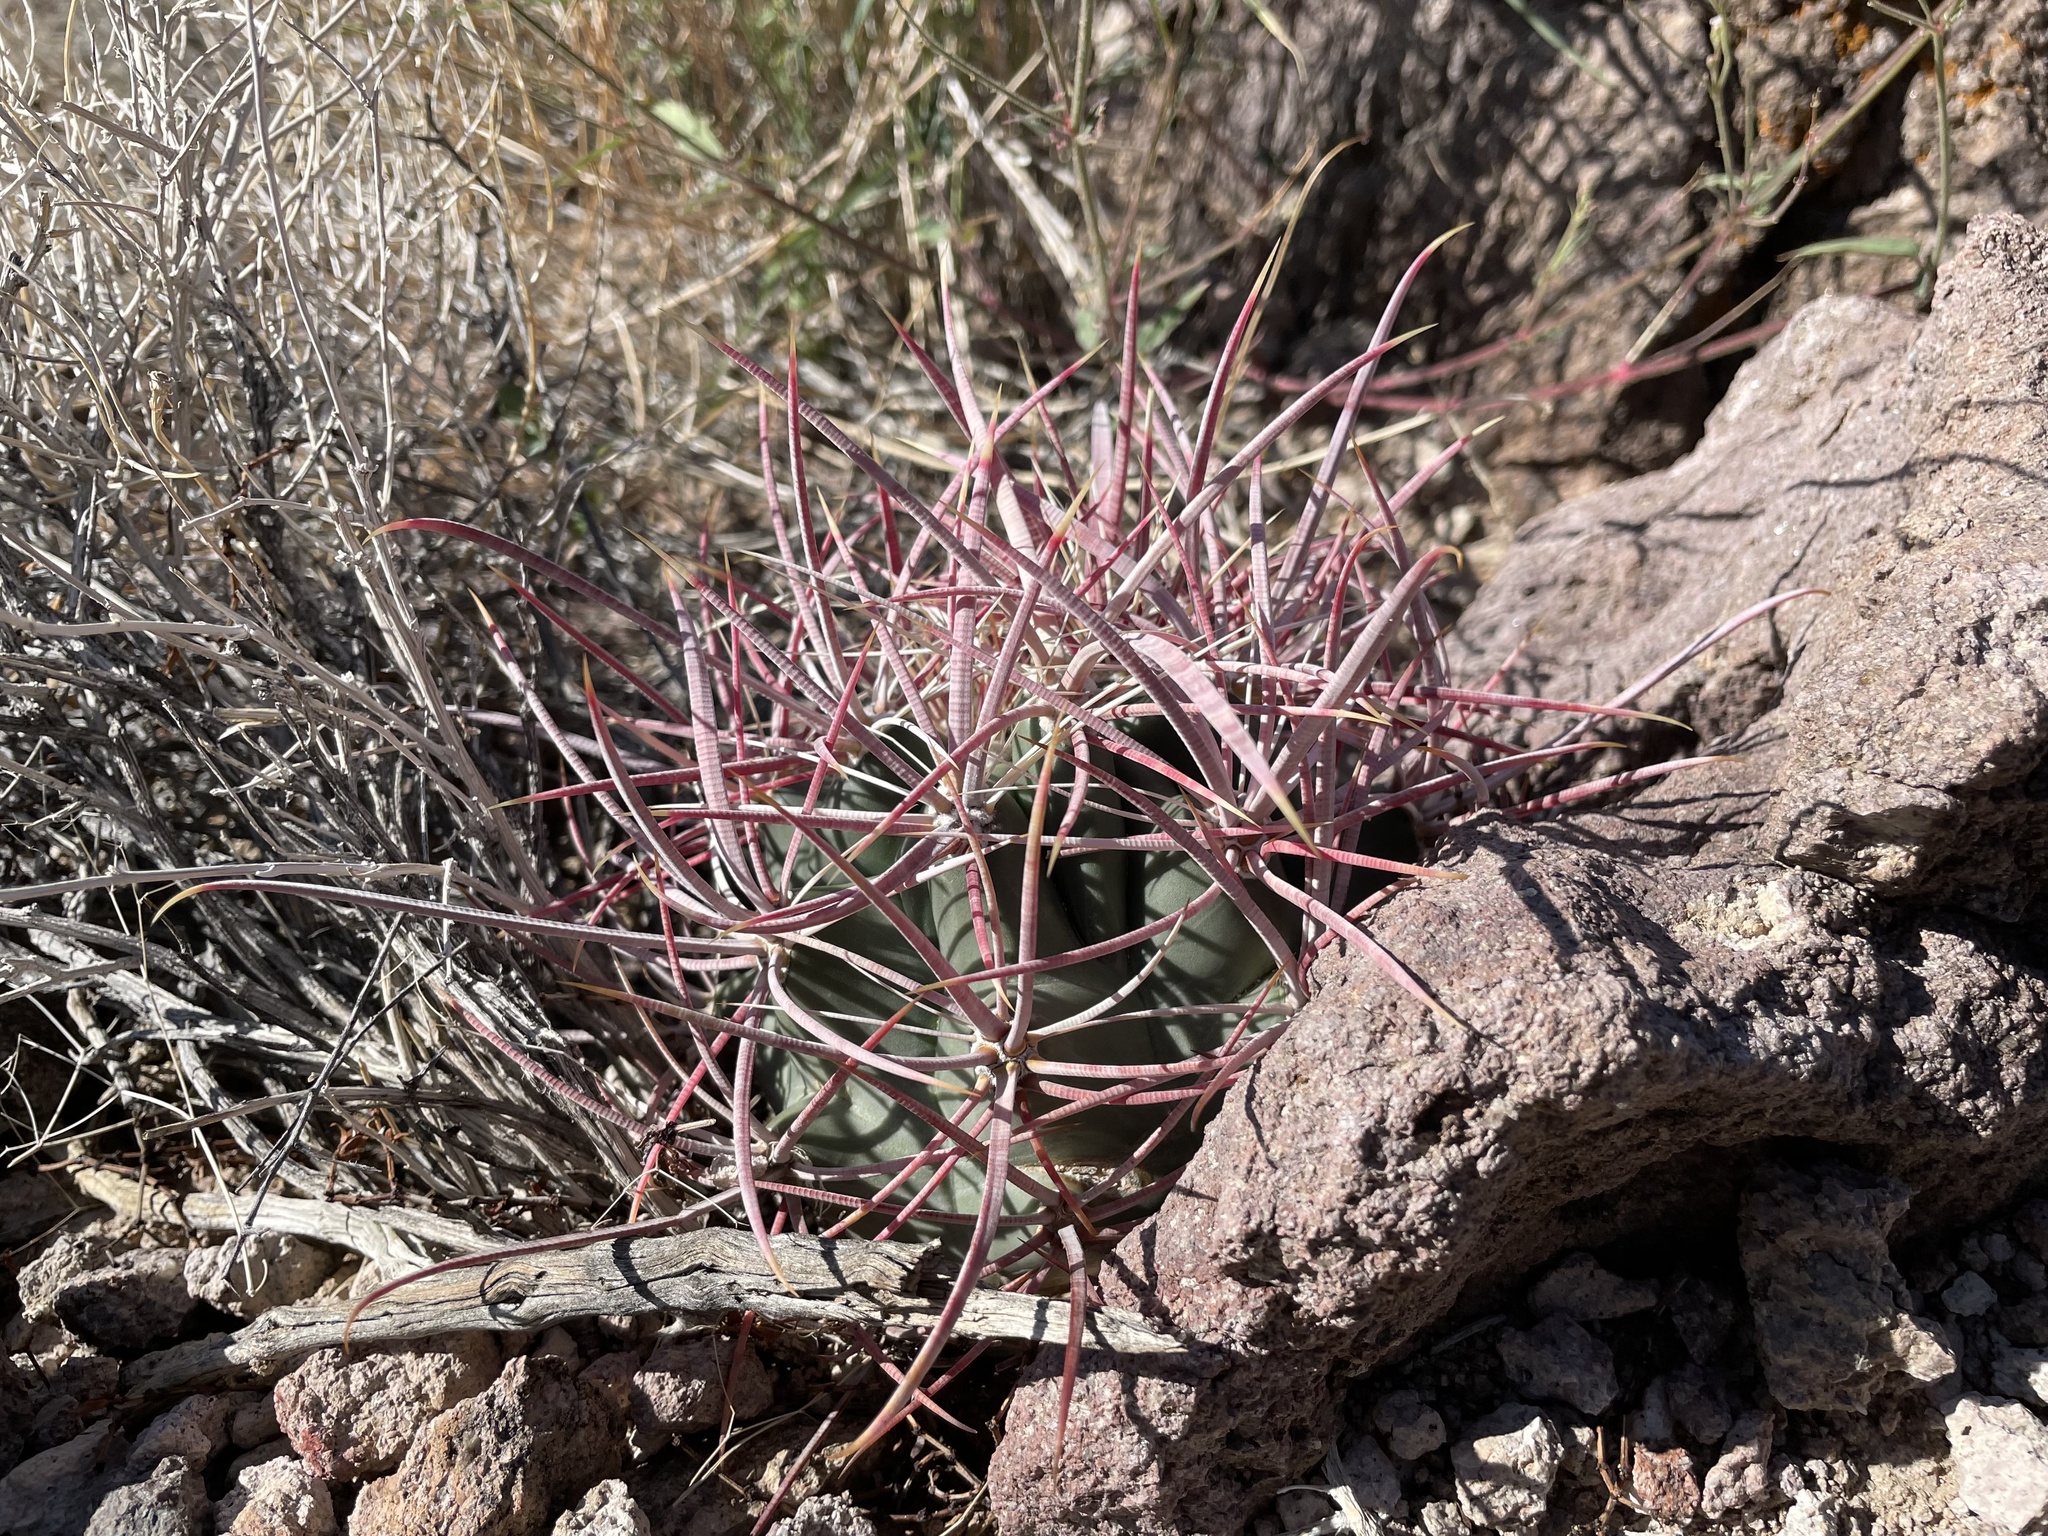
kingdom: Plantae
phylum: Tracheophyta
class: Magnoliopsida
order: Caryophyllales
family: Cactaceae
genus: Ferocactus
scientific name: Ferocactus cylindraceus
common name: California barrel cactus
